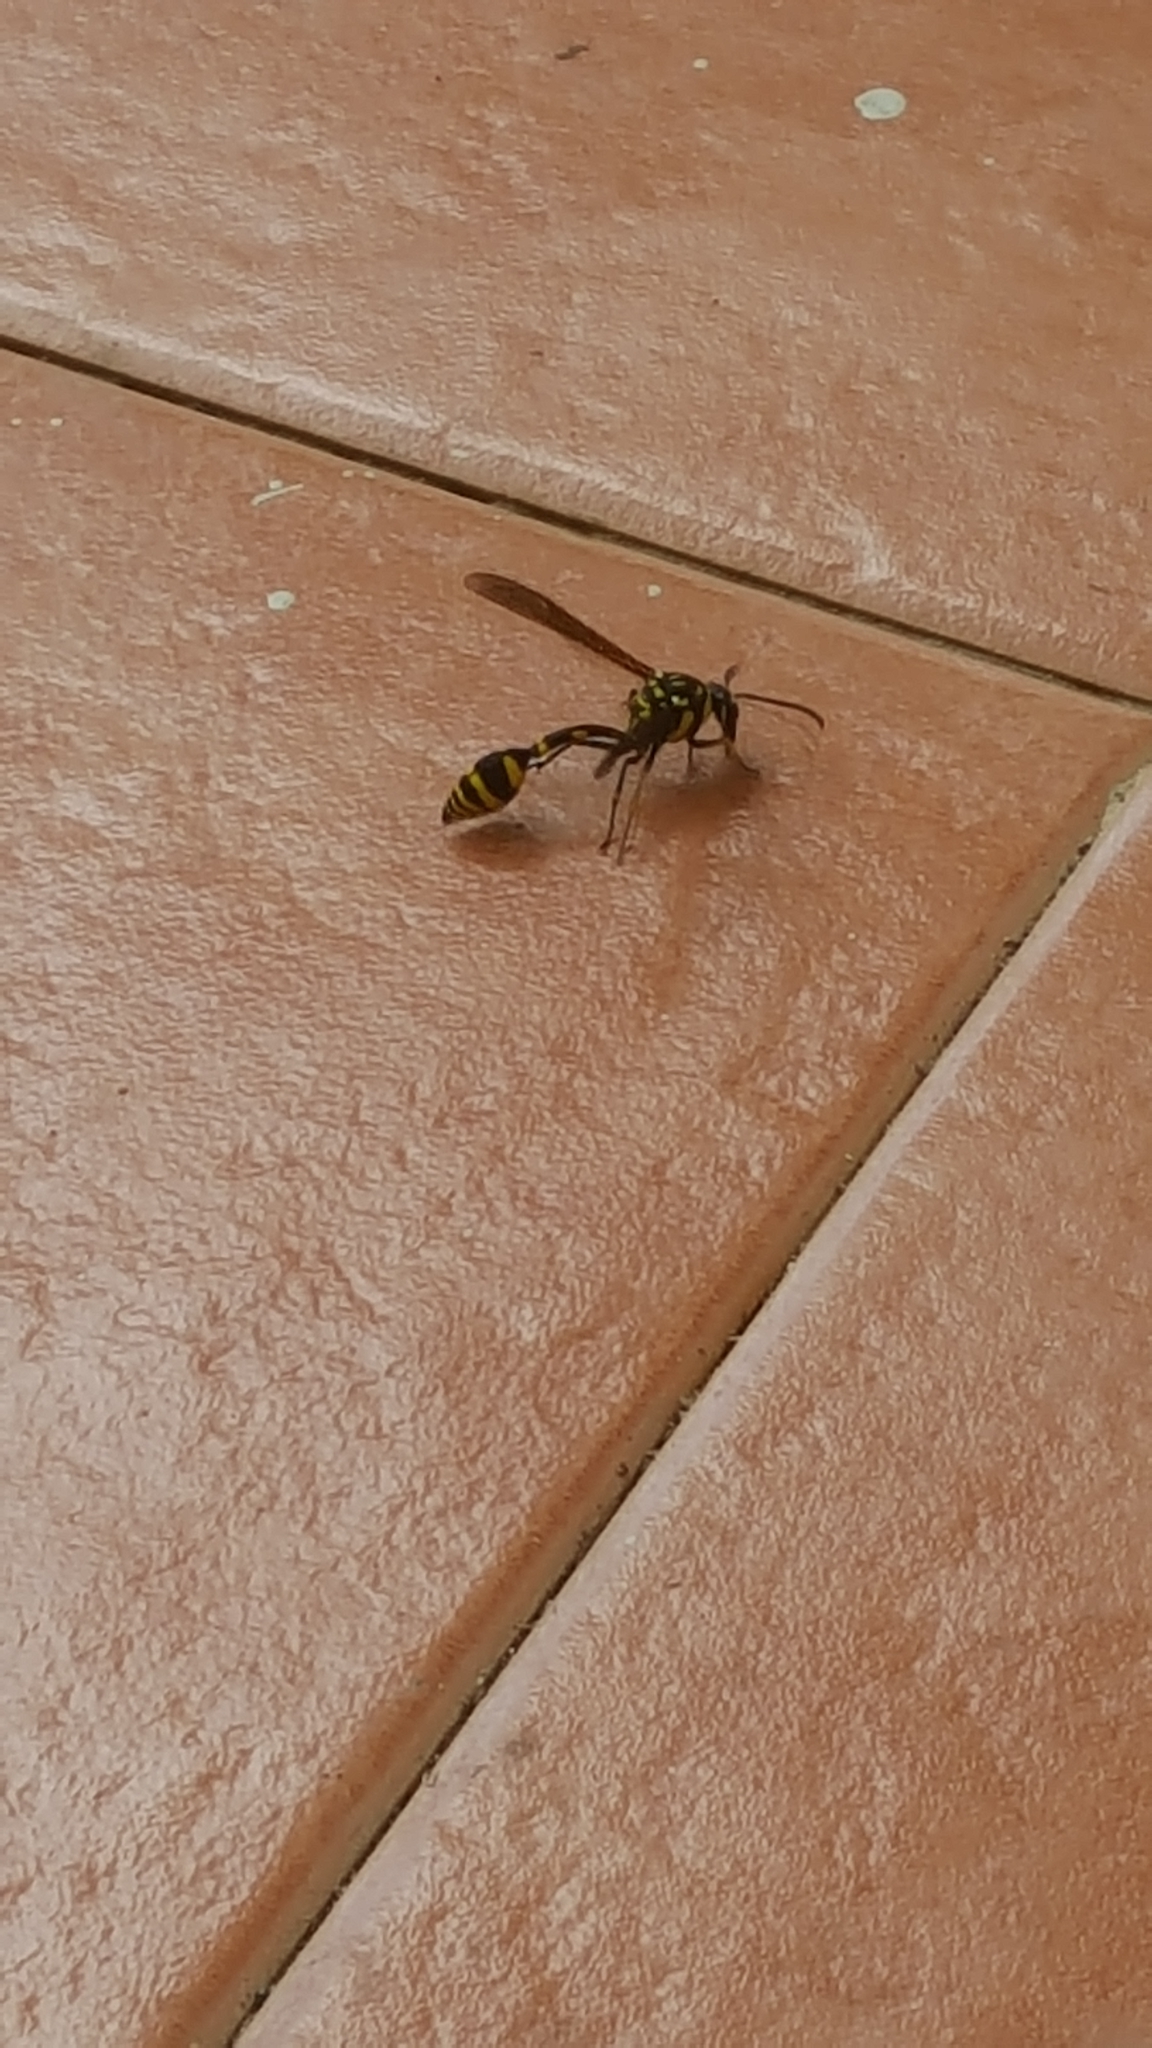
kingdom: Animalia
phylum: Arthropoda
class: Insecta
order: Hymenoptera
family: Eumenidae
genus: Phimenes
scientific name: Phimenes flavopictus
